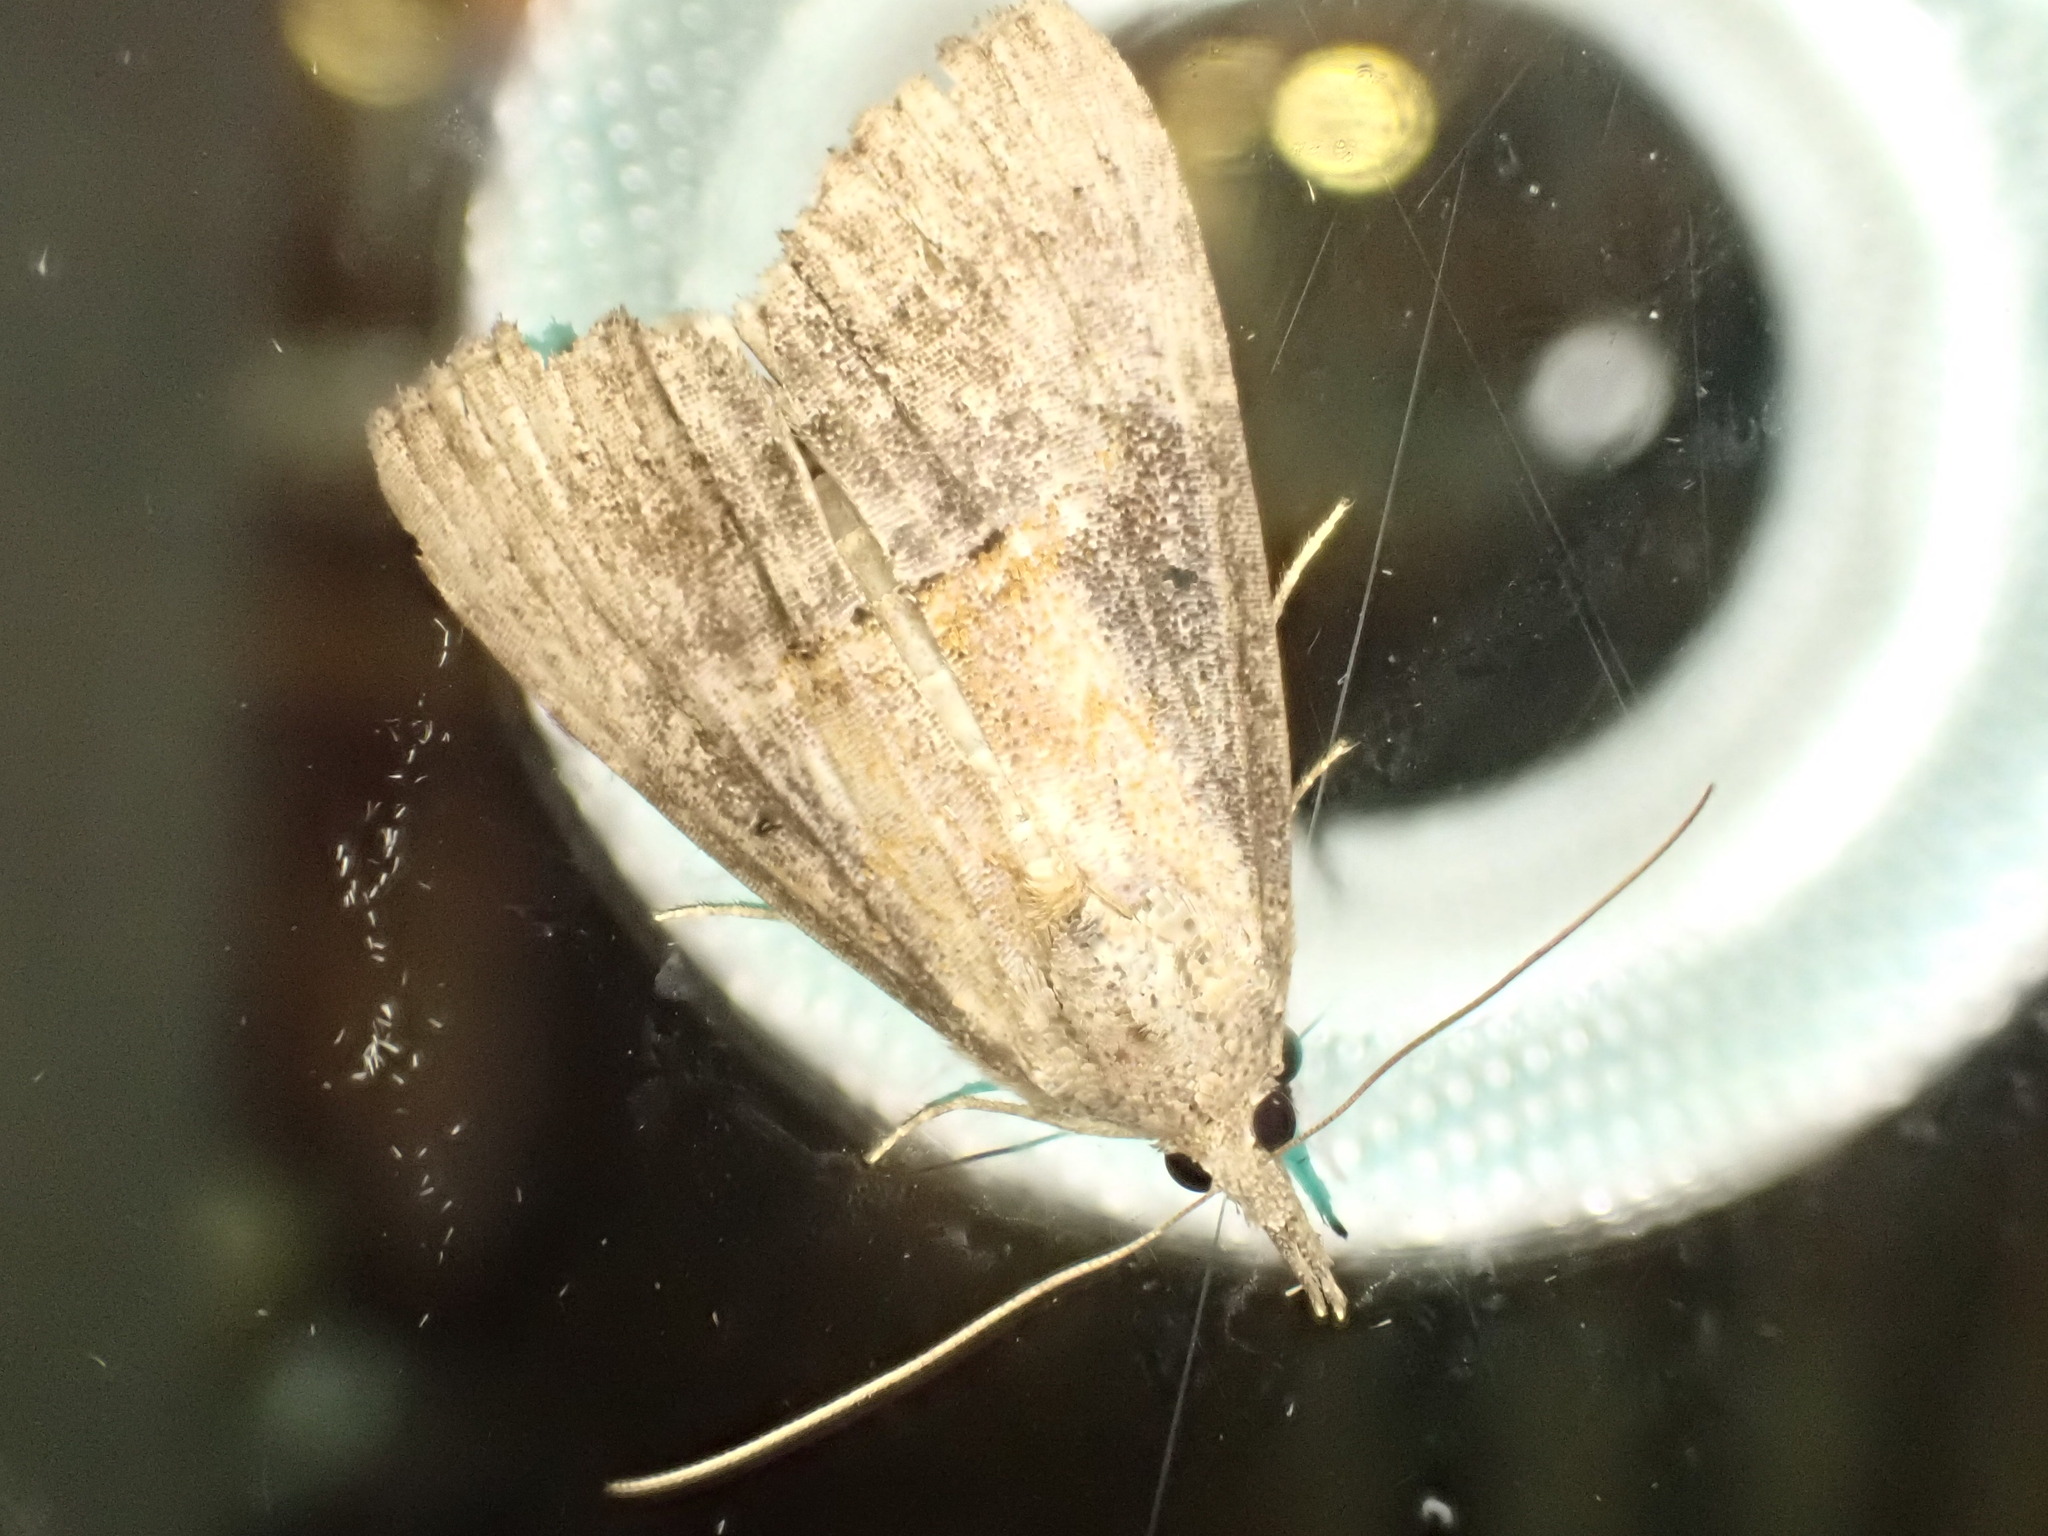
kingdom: Animalia
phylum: Arthropoda
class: Insecta
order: Lepidoptera
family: Erebidae
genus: Hypena
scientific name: Hypena scabra
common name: Green cloverworm
